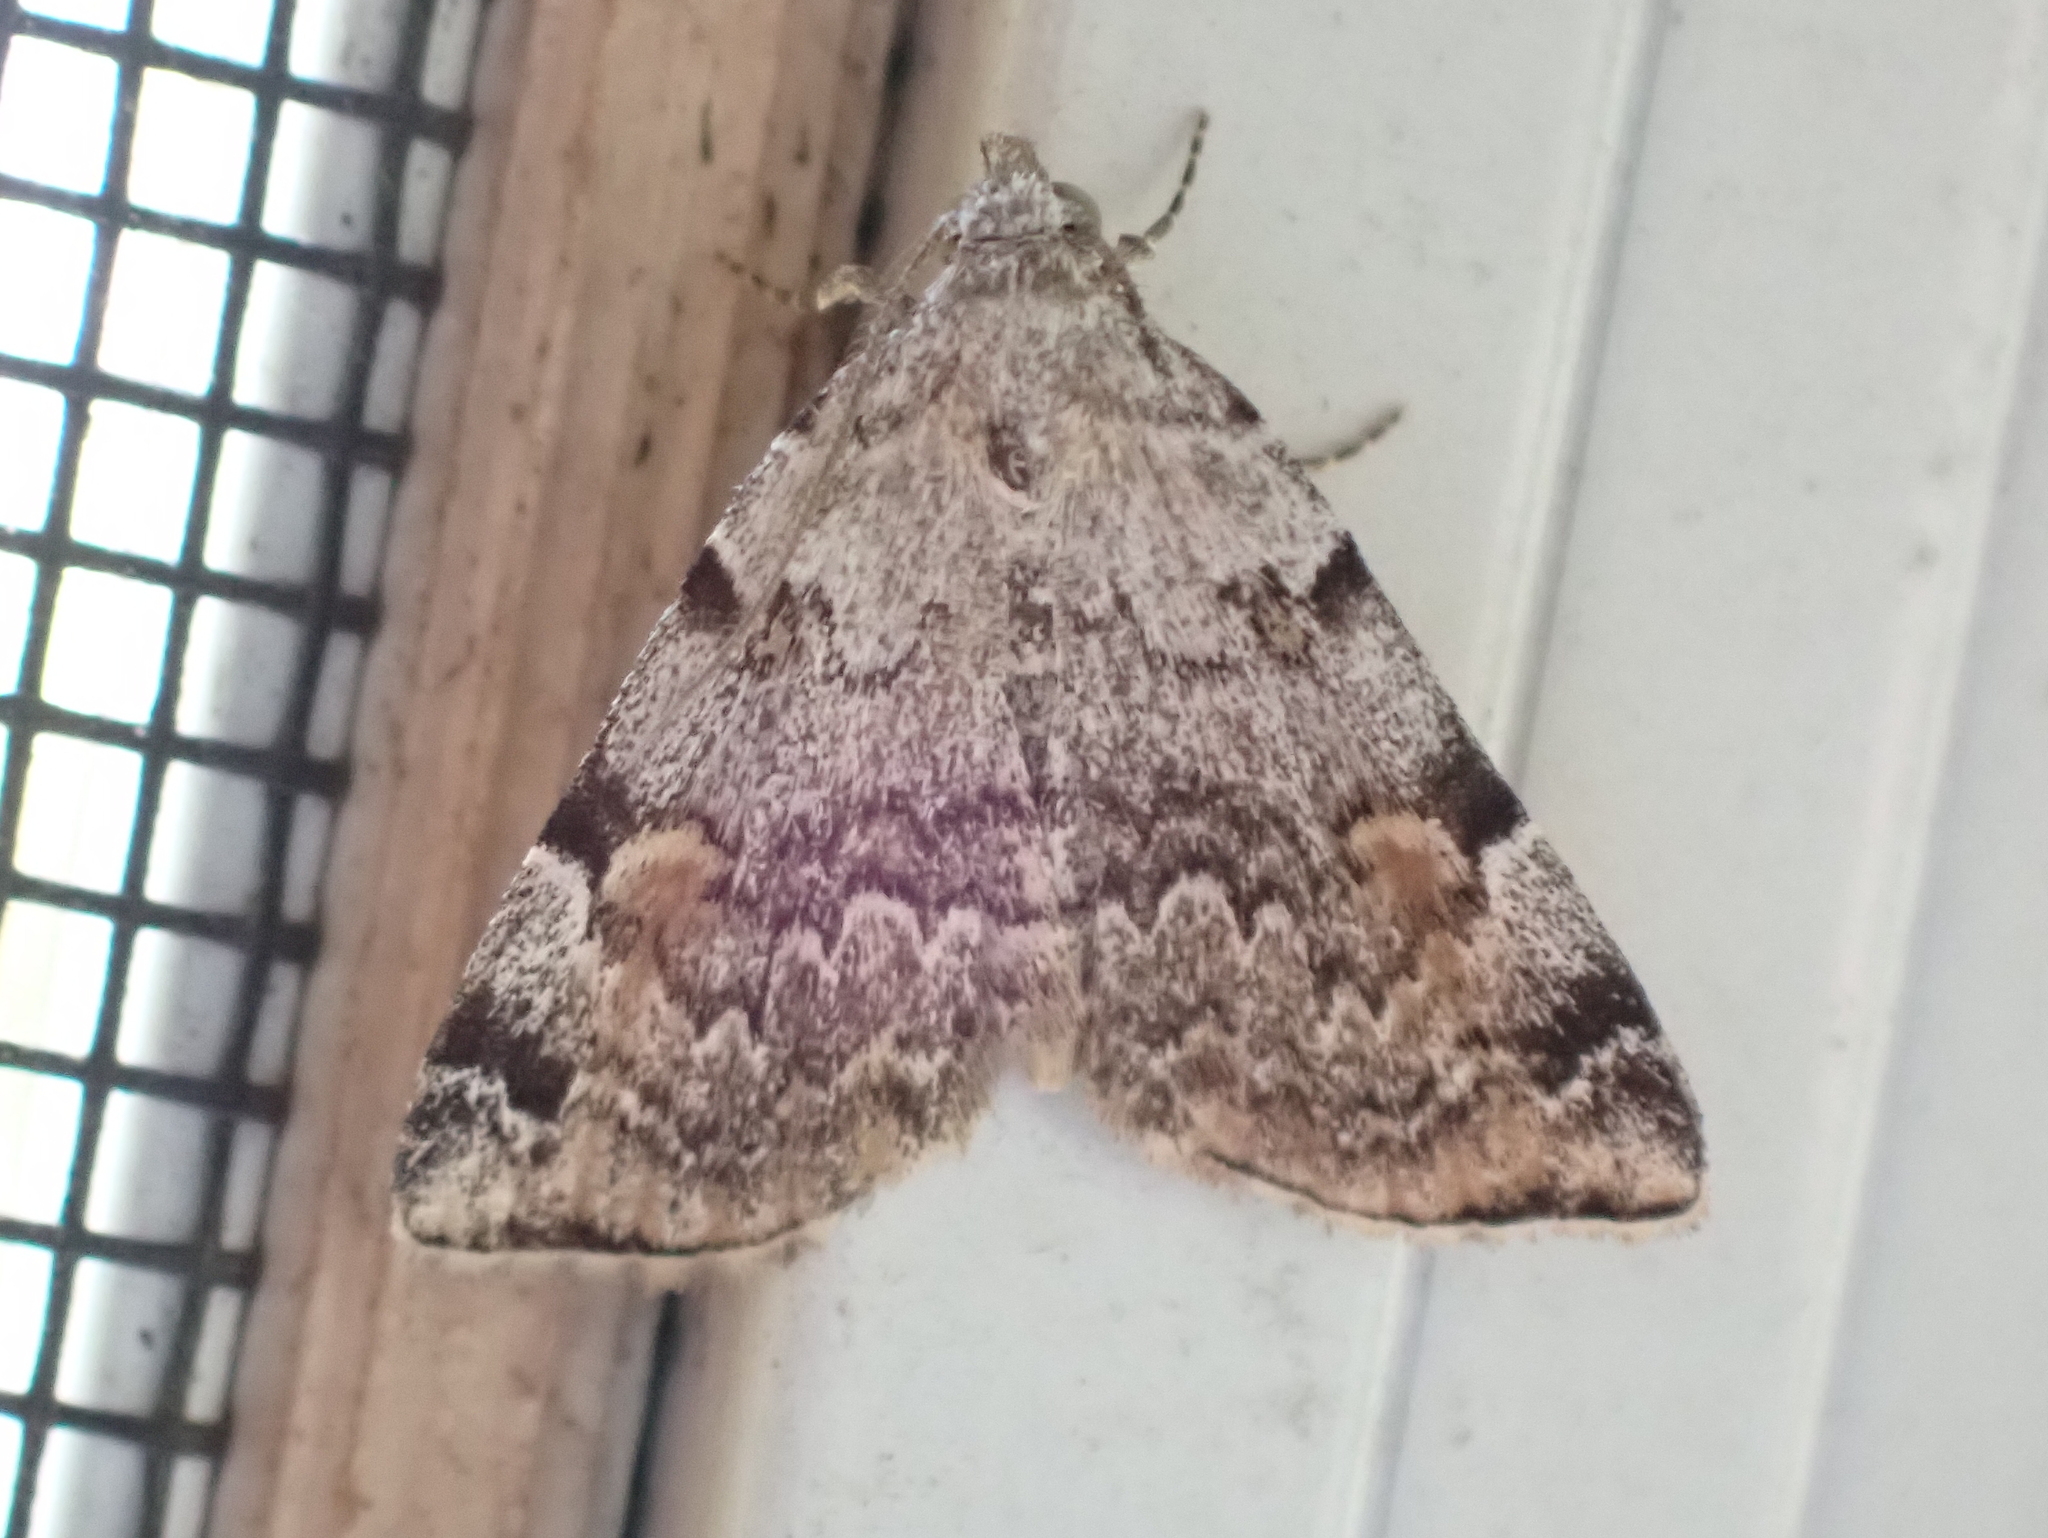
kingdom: Animalia
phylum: Arthropoda
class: Insecta
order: Lepidoptera
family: Erebidae
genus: Idia
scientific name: Idia americalis
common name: American idia moth
